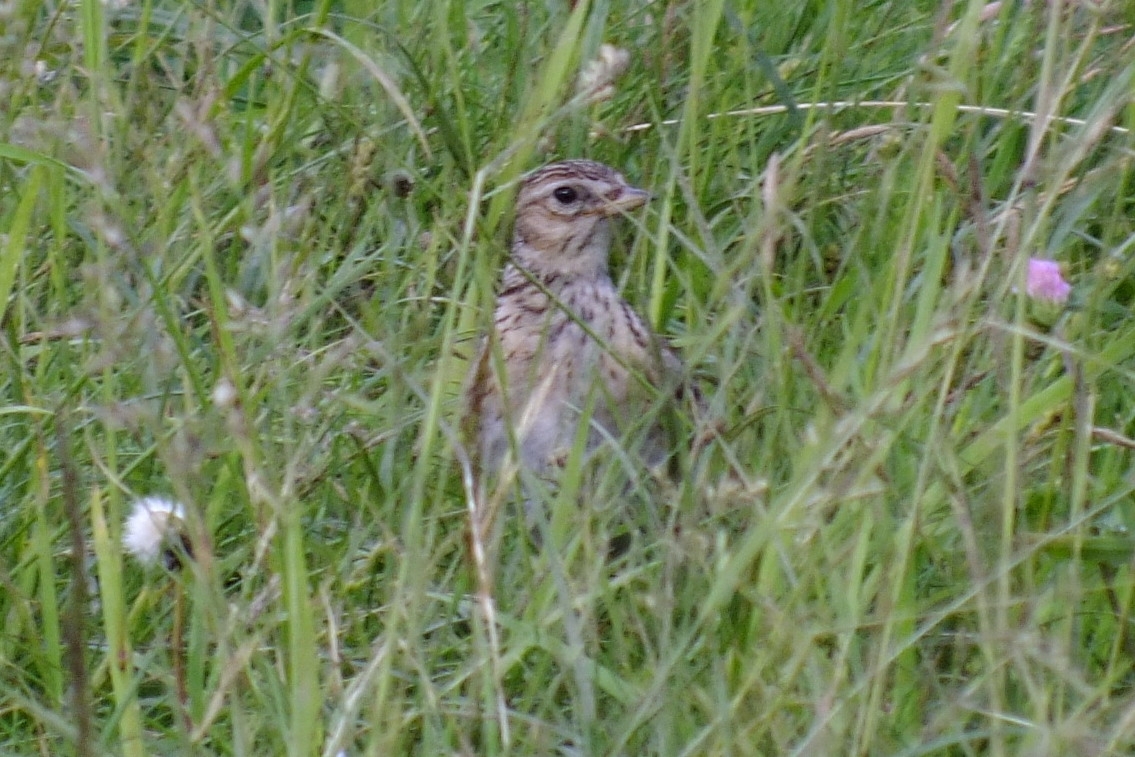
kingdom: Animalia
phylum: Chordata
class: Aves
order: Passeriformes
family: Alaudidae
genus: Alauda
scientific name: Alauda arvensis
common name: Eurasian skylark
